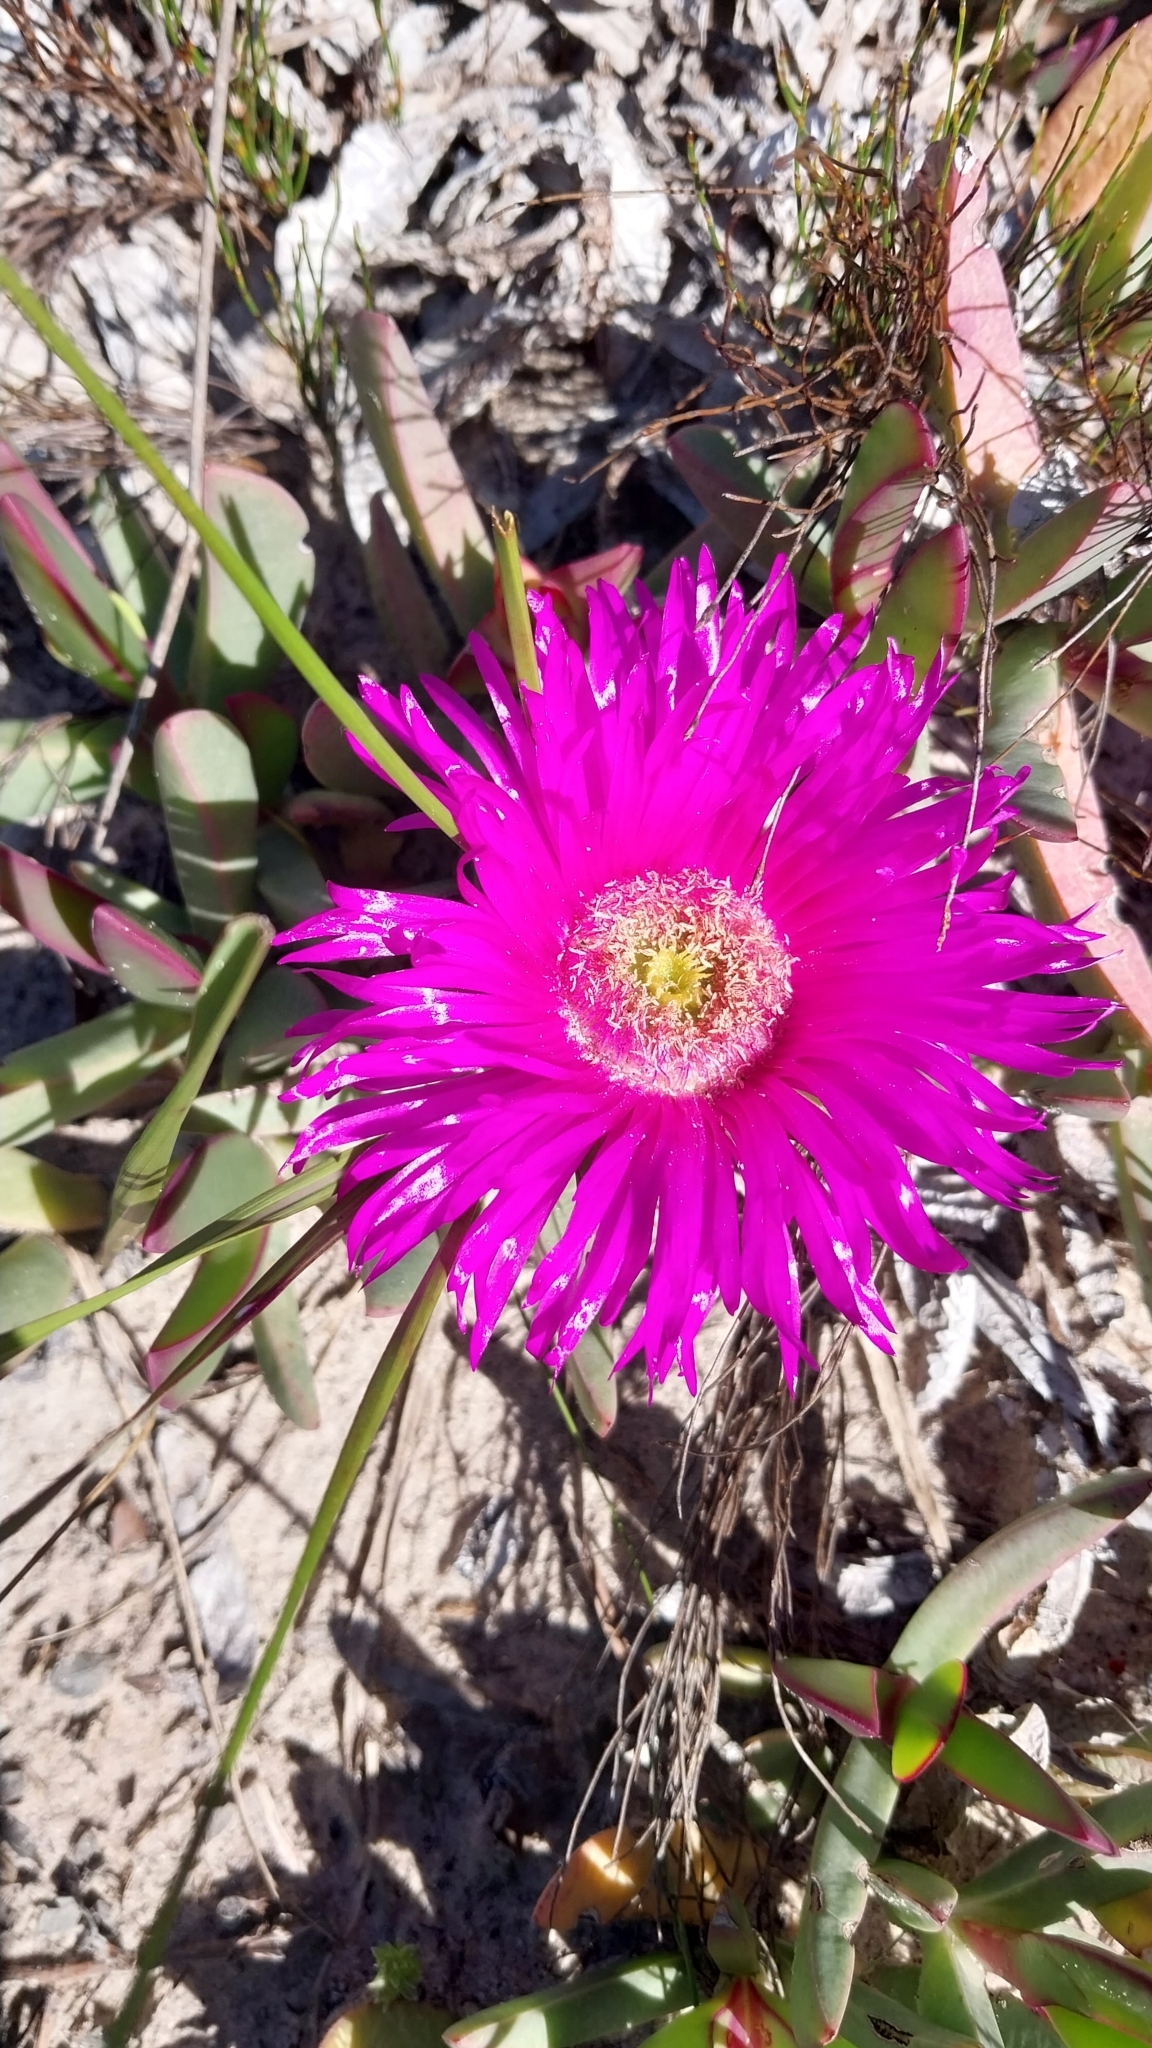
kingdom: Plantae
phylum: Tracheophyta
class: Magnoliopsida
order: Caryophyllales
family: Aizoaceae
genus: Carpobrotus
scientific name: Carpobrotus acinaciformis
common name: Sally-my-handsome
